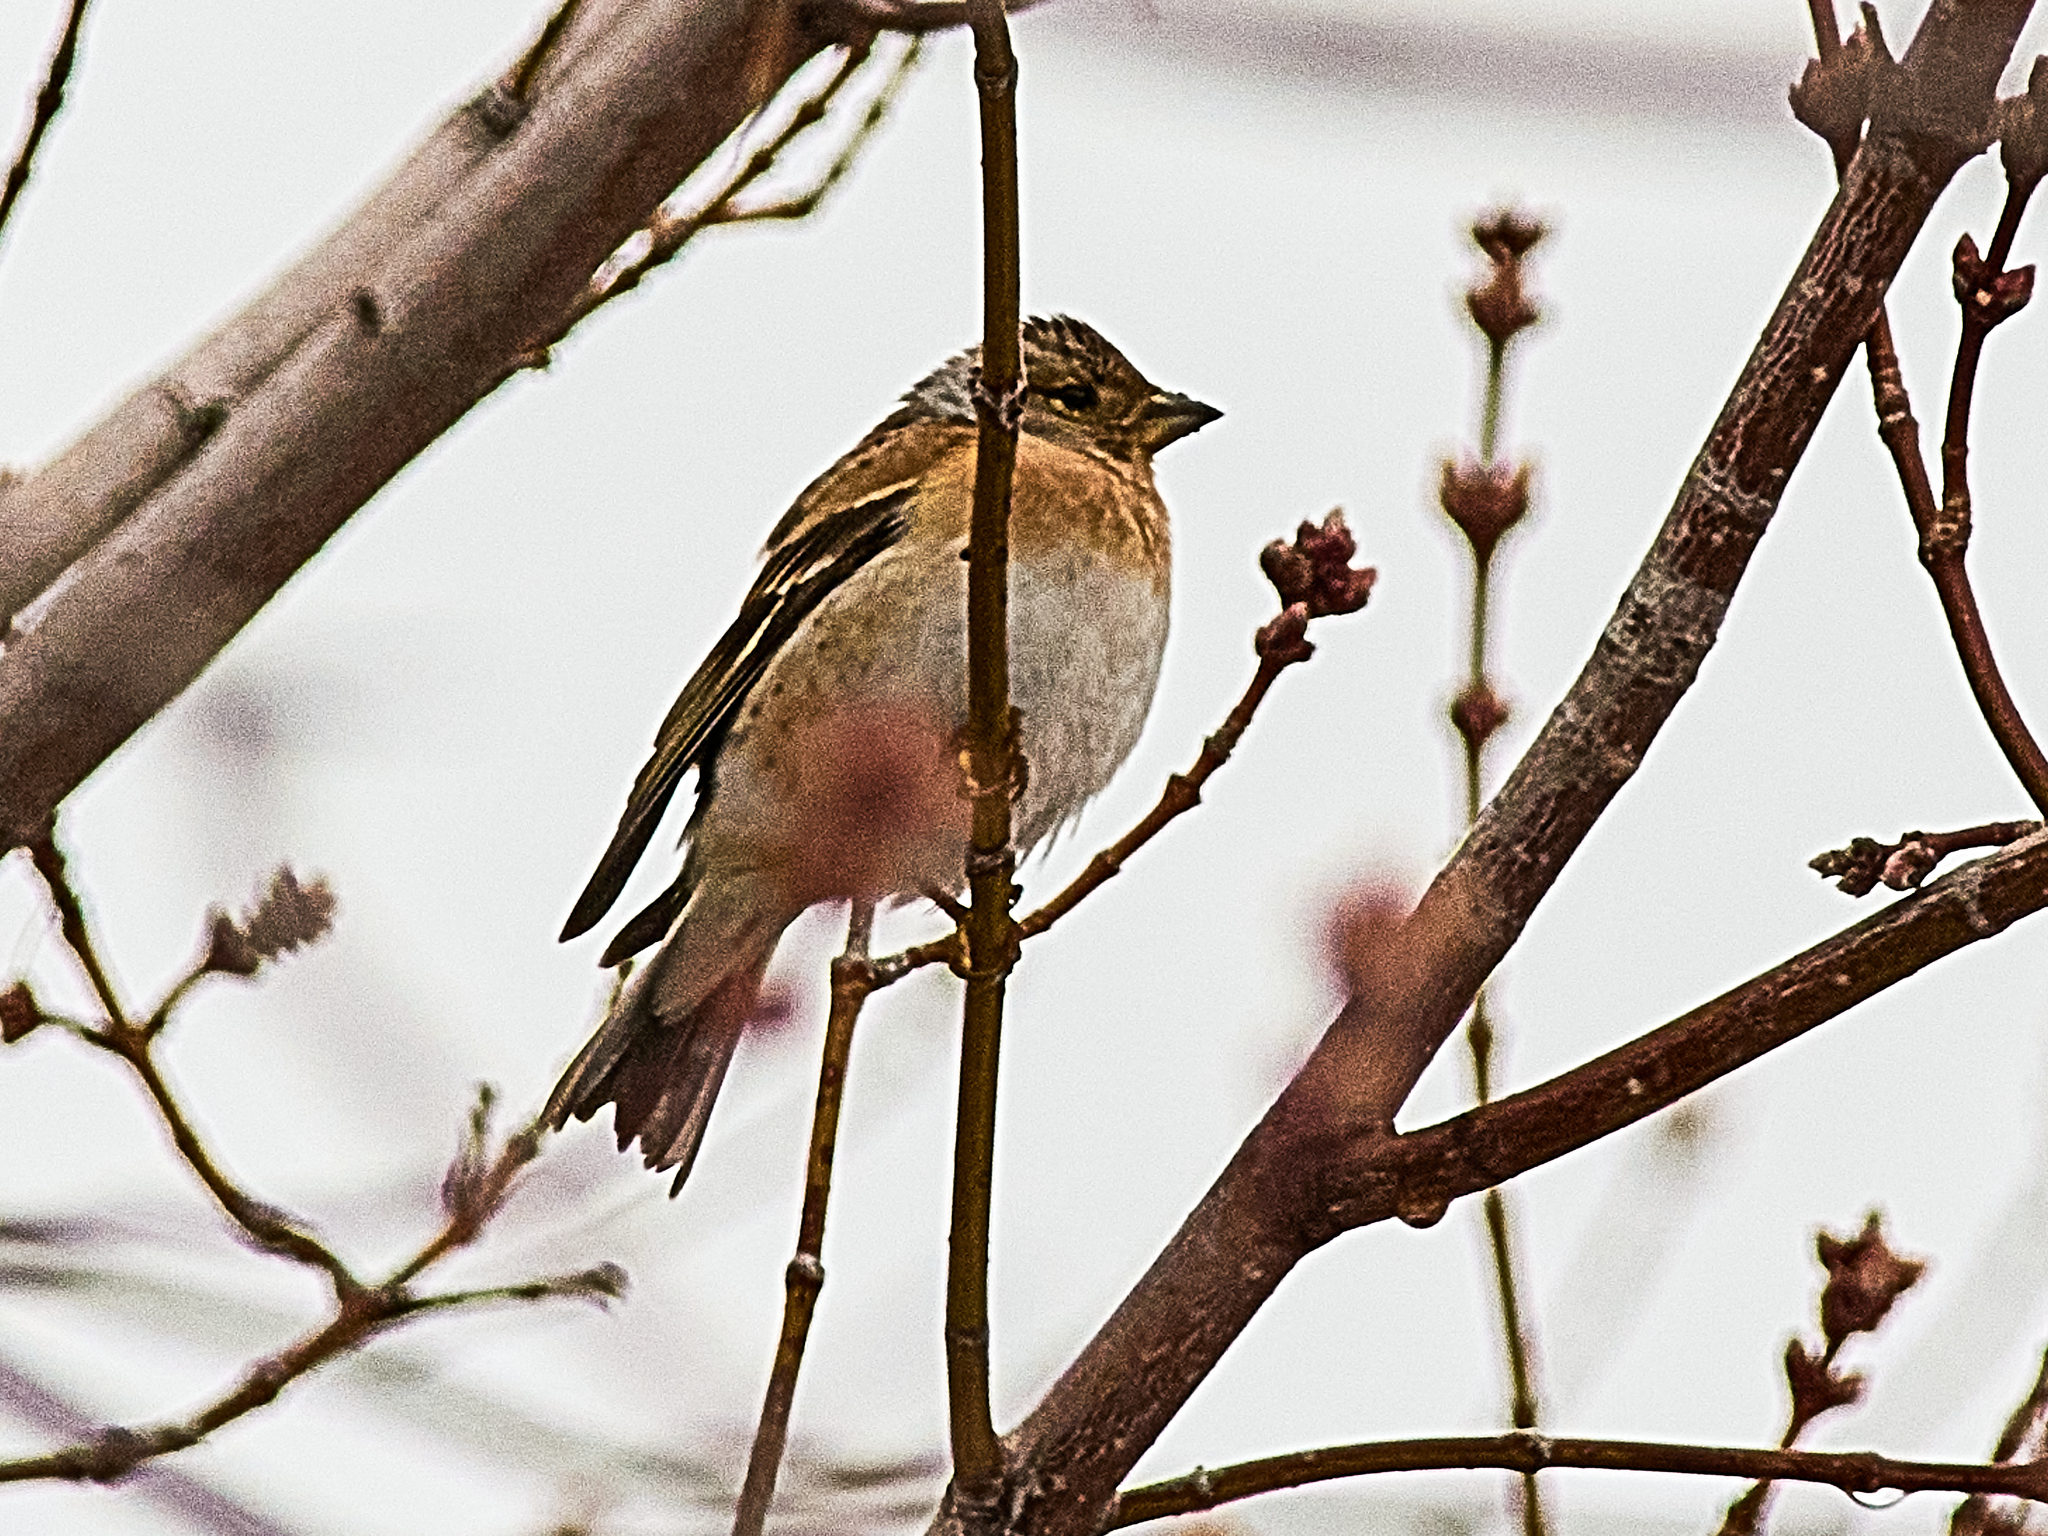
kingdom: Animalia
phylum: Chordata
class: Aves
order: Passeriformes
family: Fringillidae
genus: Fringilla
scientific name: Fringilla montifringilla
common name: Brambling
